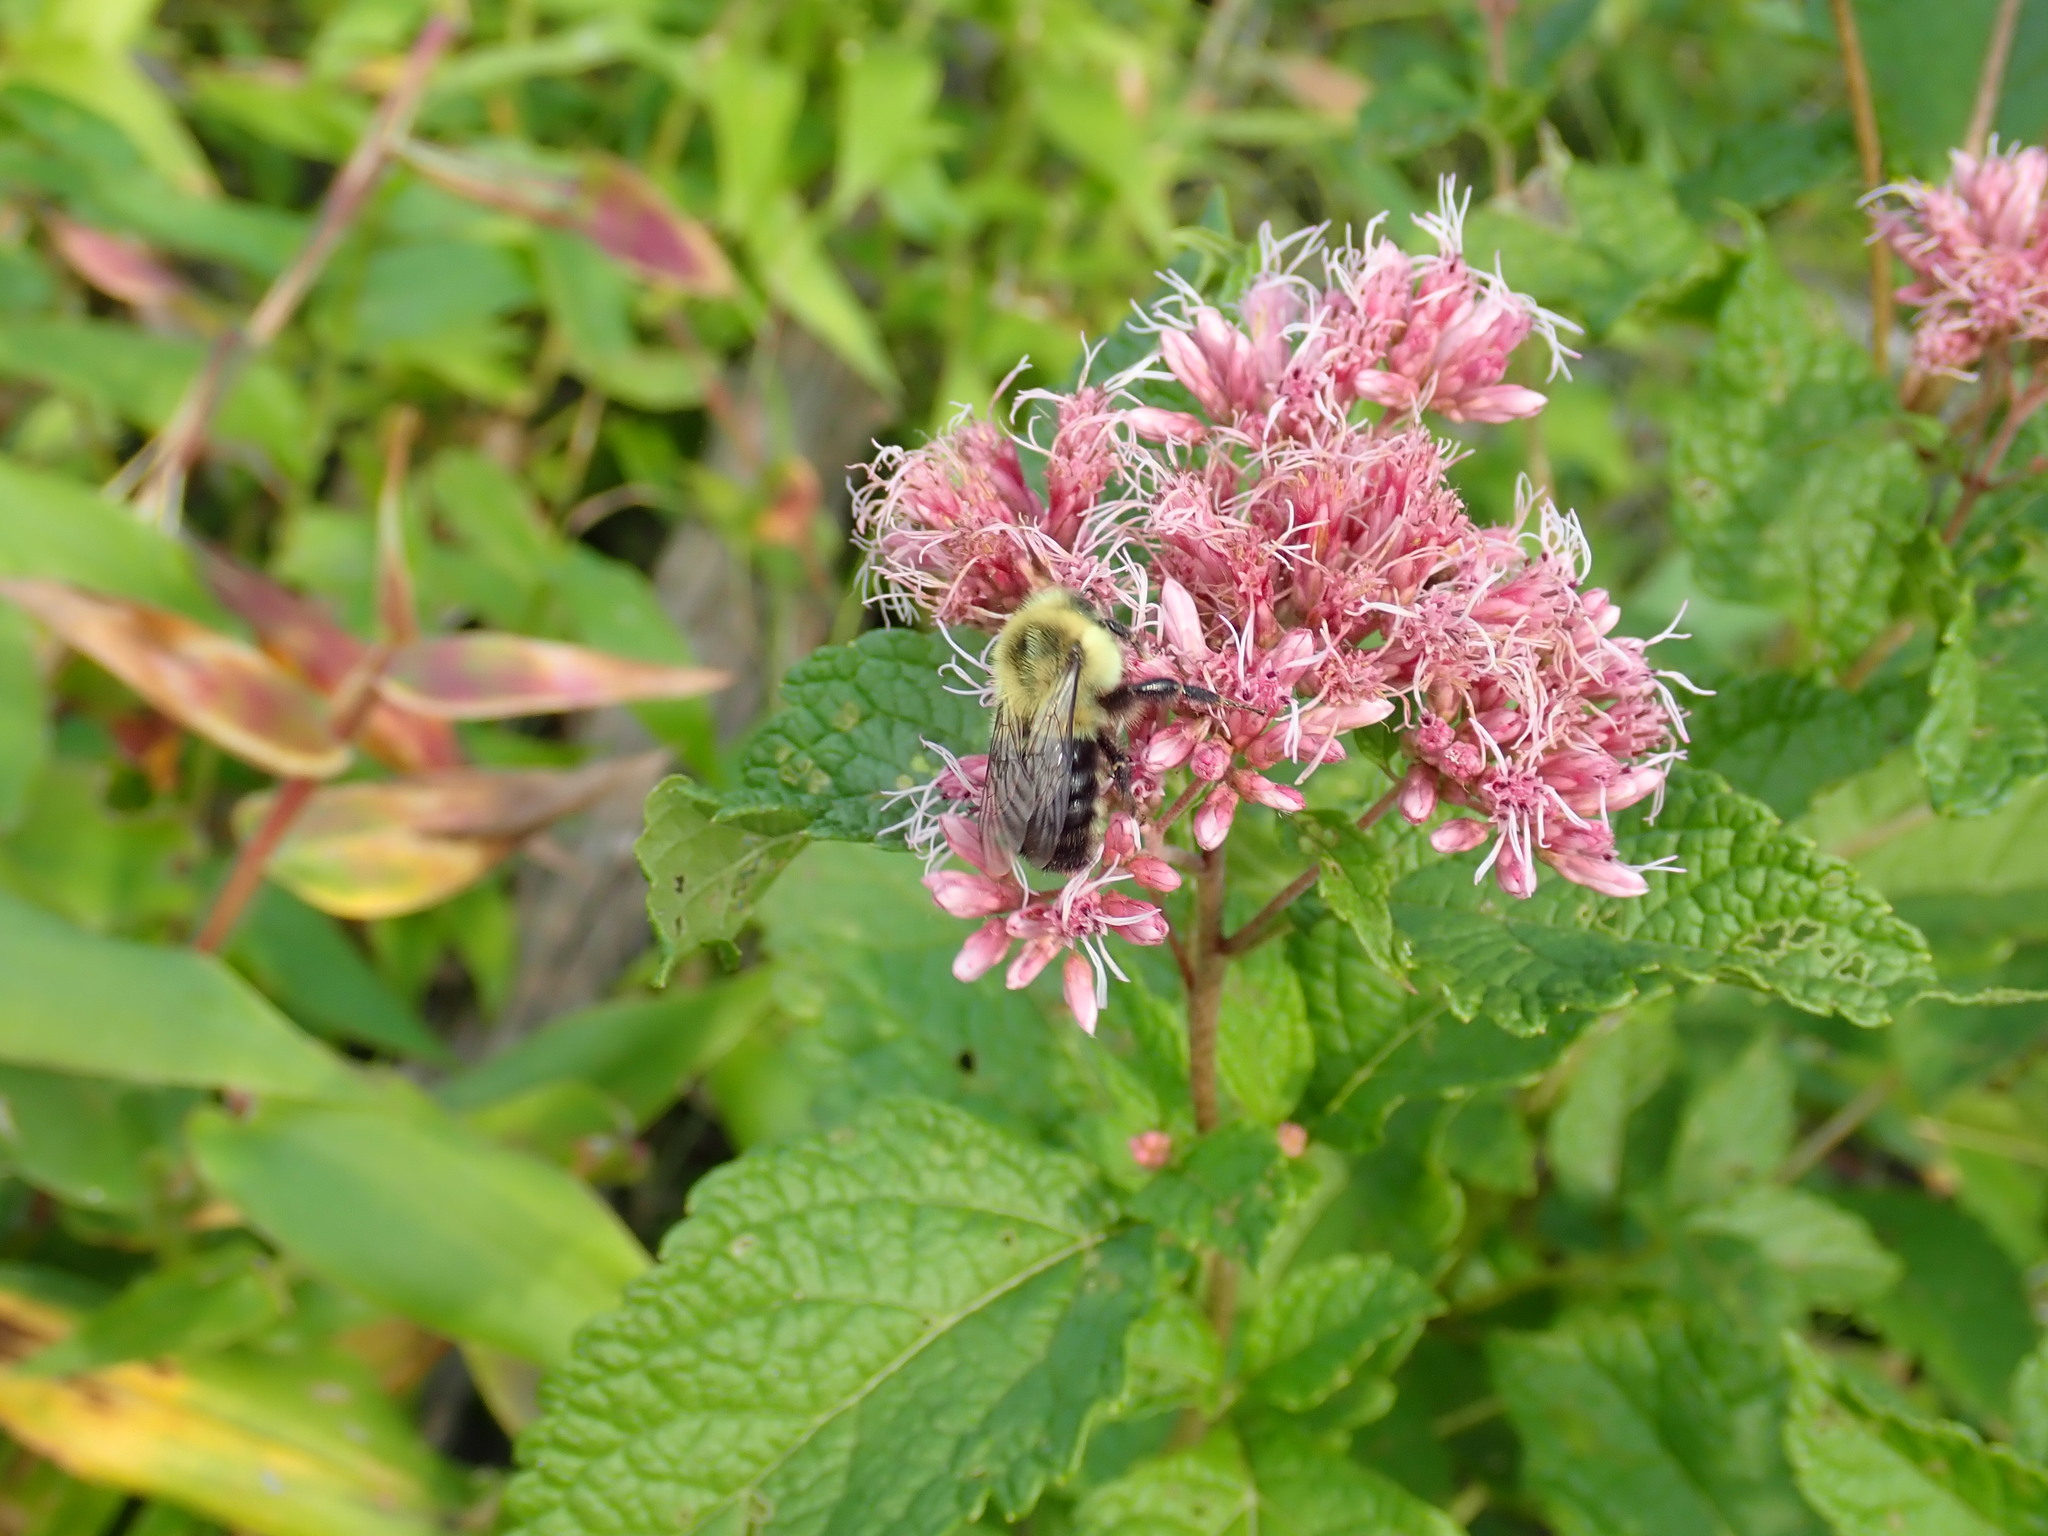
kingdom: Animalia
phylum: Arthropoda
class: Insecta
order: Hymenoptera
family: Apidae
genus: Bombus
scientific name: Bombus impatiens
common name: Common eastern bumble bee
